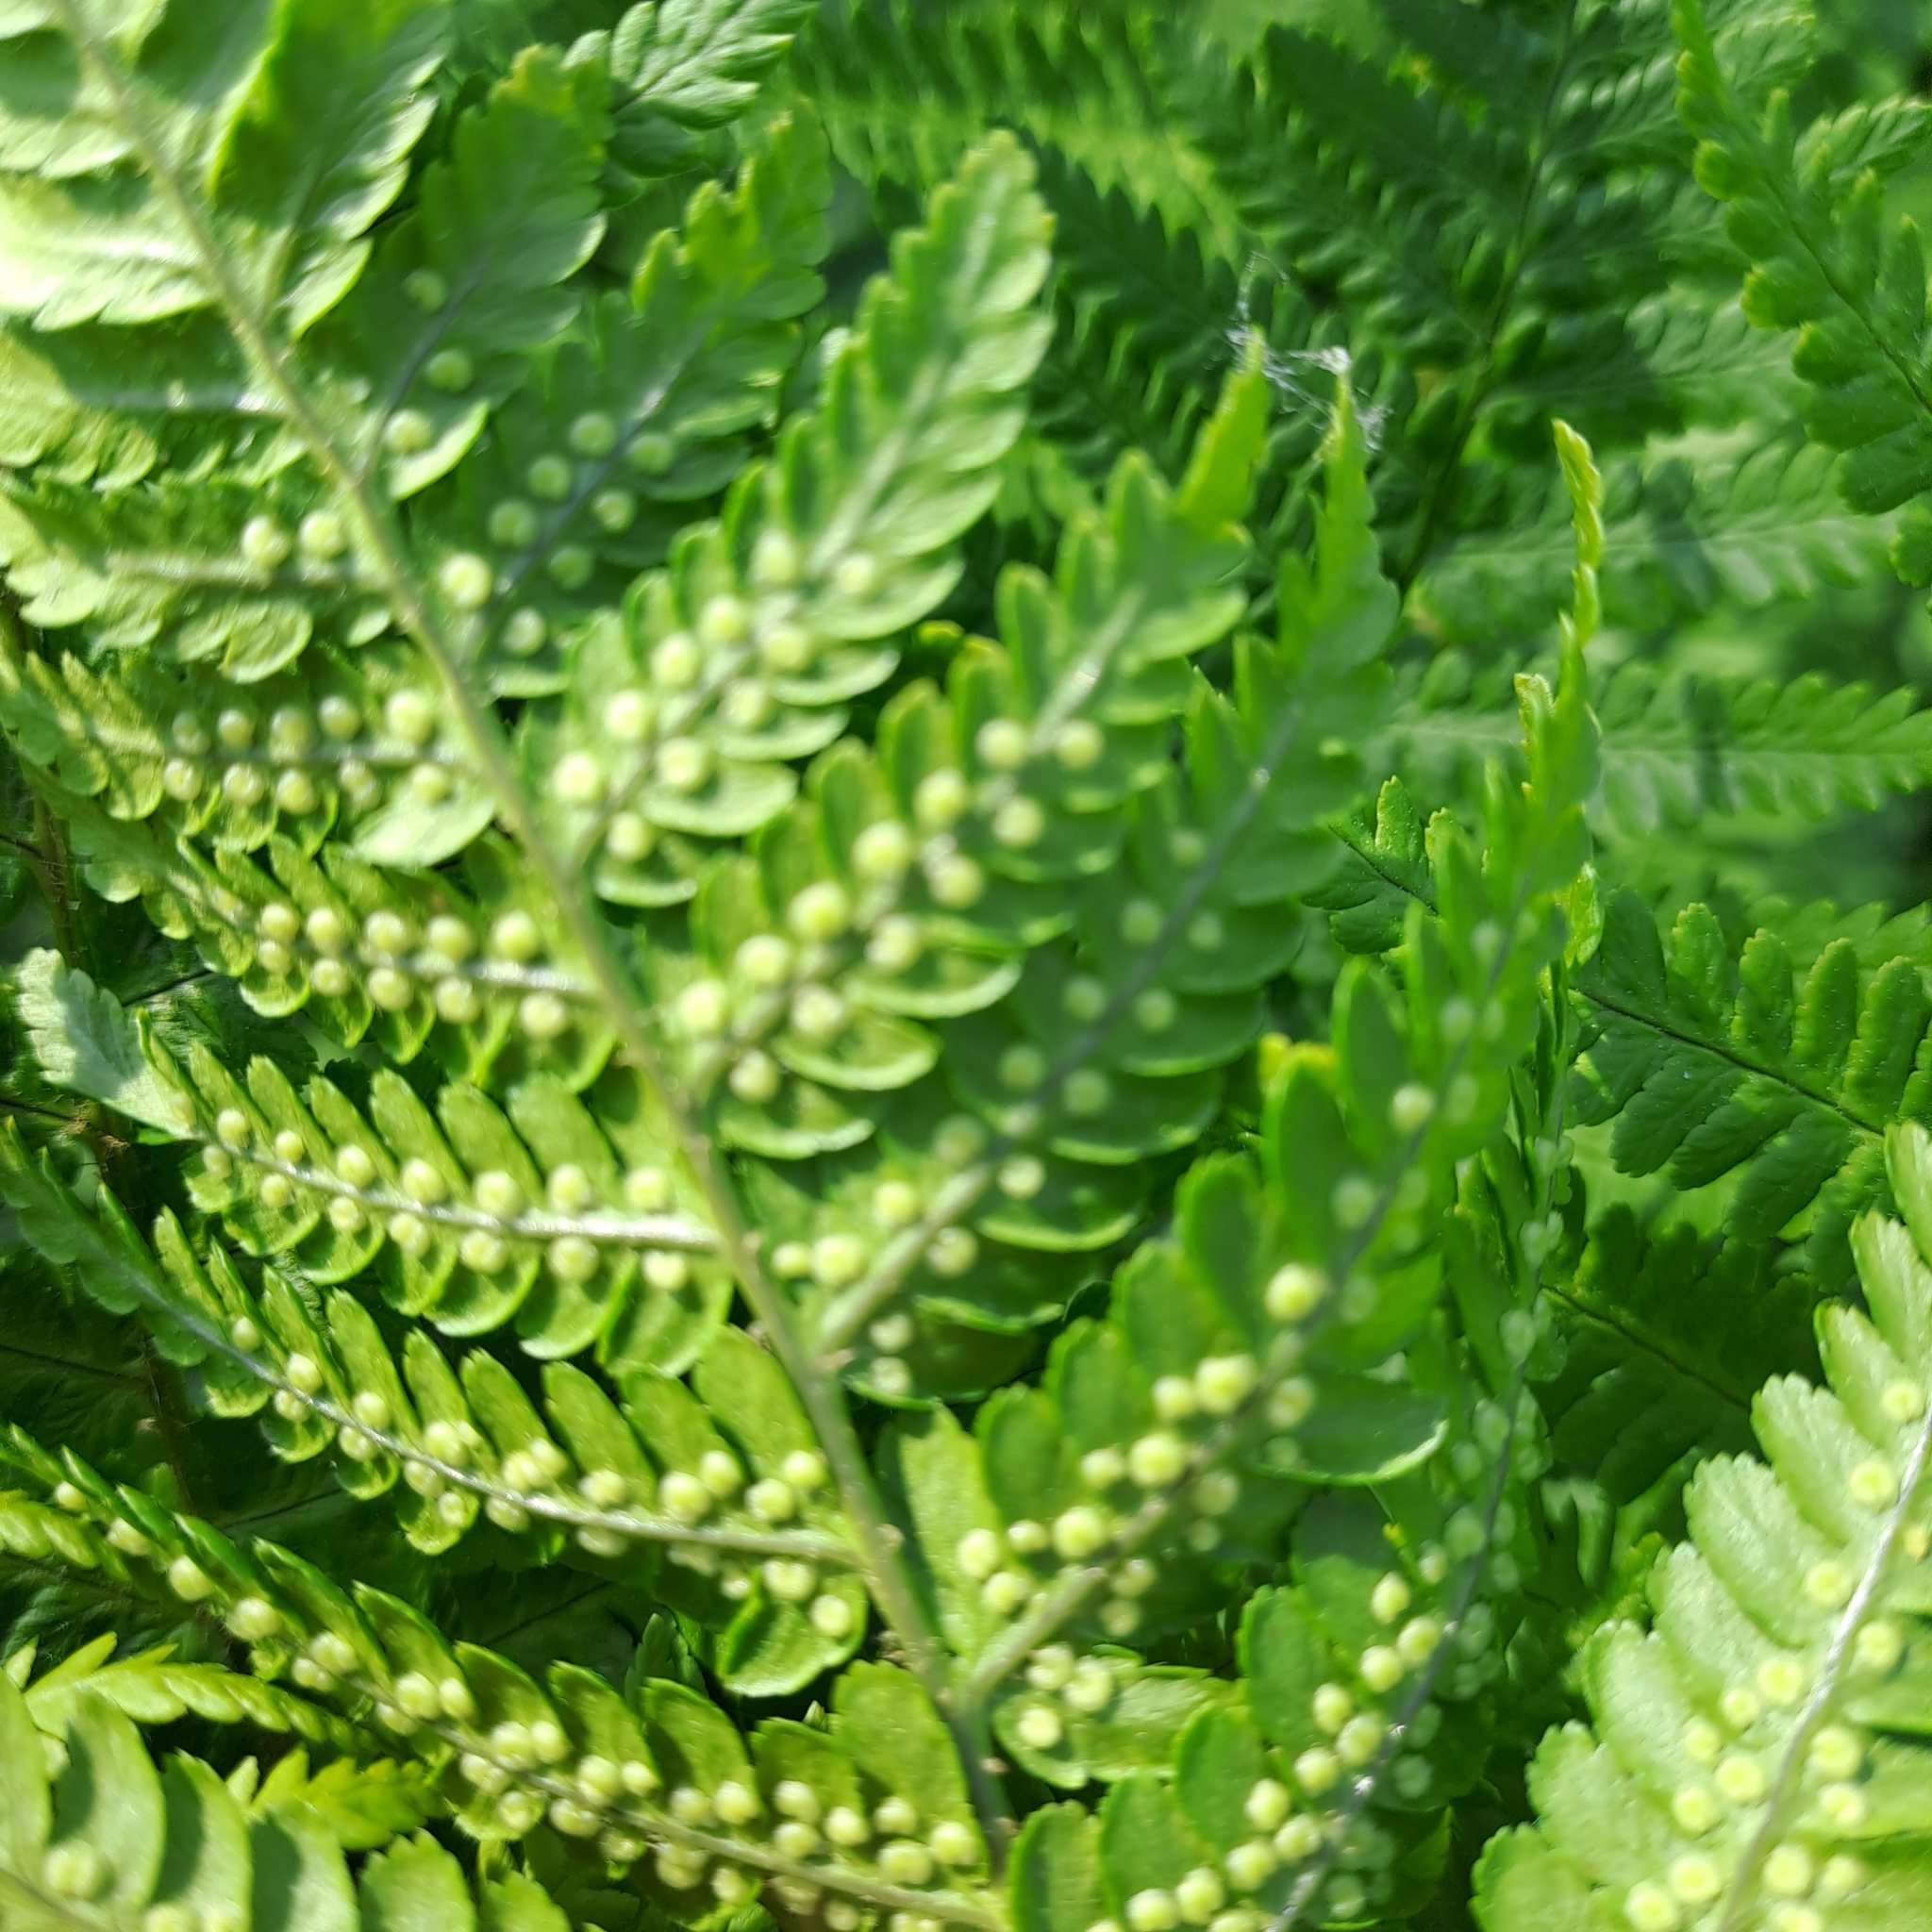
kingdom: Plantae
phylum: Tracheophyta
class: Polypodiopsida
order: Polypodiales
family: Dryopteridaceae
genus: Dryopteris
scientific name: Dryopteris filix-mas
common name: Male fern
